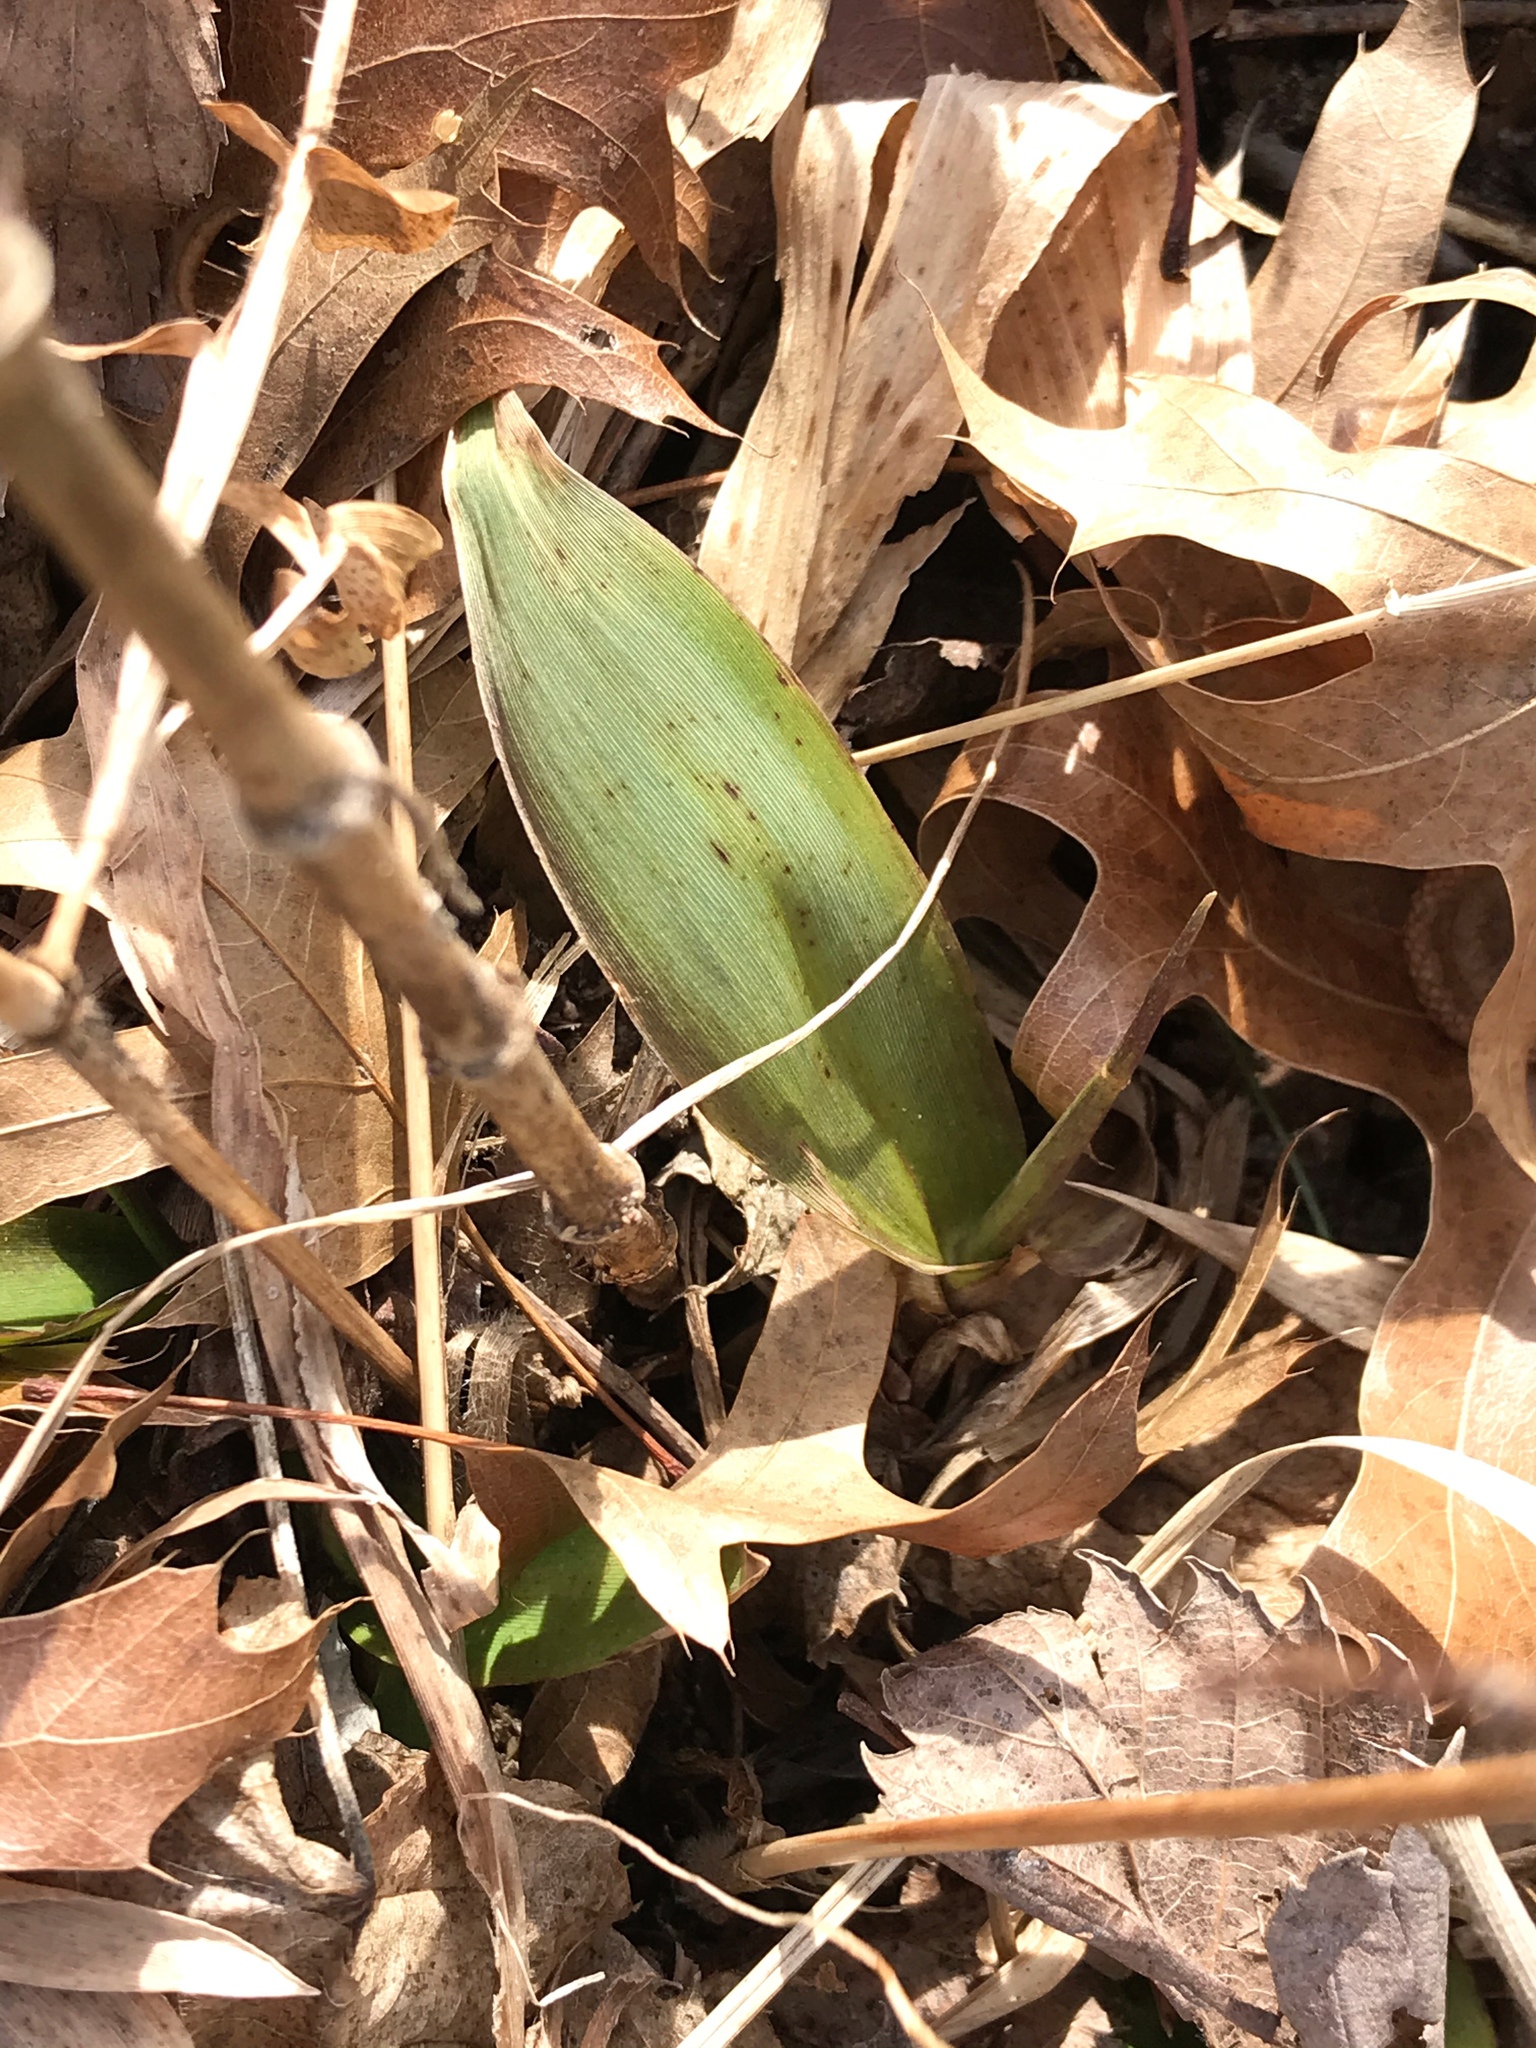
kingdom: Plantae
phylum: Tracheophyta
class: Liliopsida
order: Poales
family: Poaceae
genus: Dichanthelium
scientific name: Dichanthelium clandestinum
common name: Deer-tongue grass
